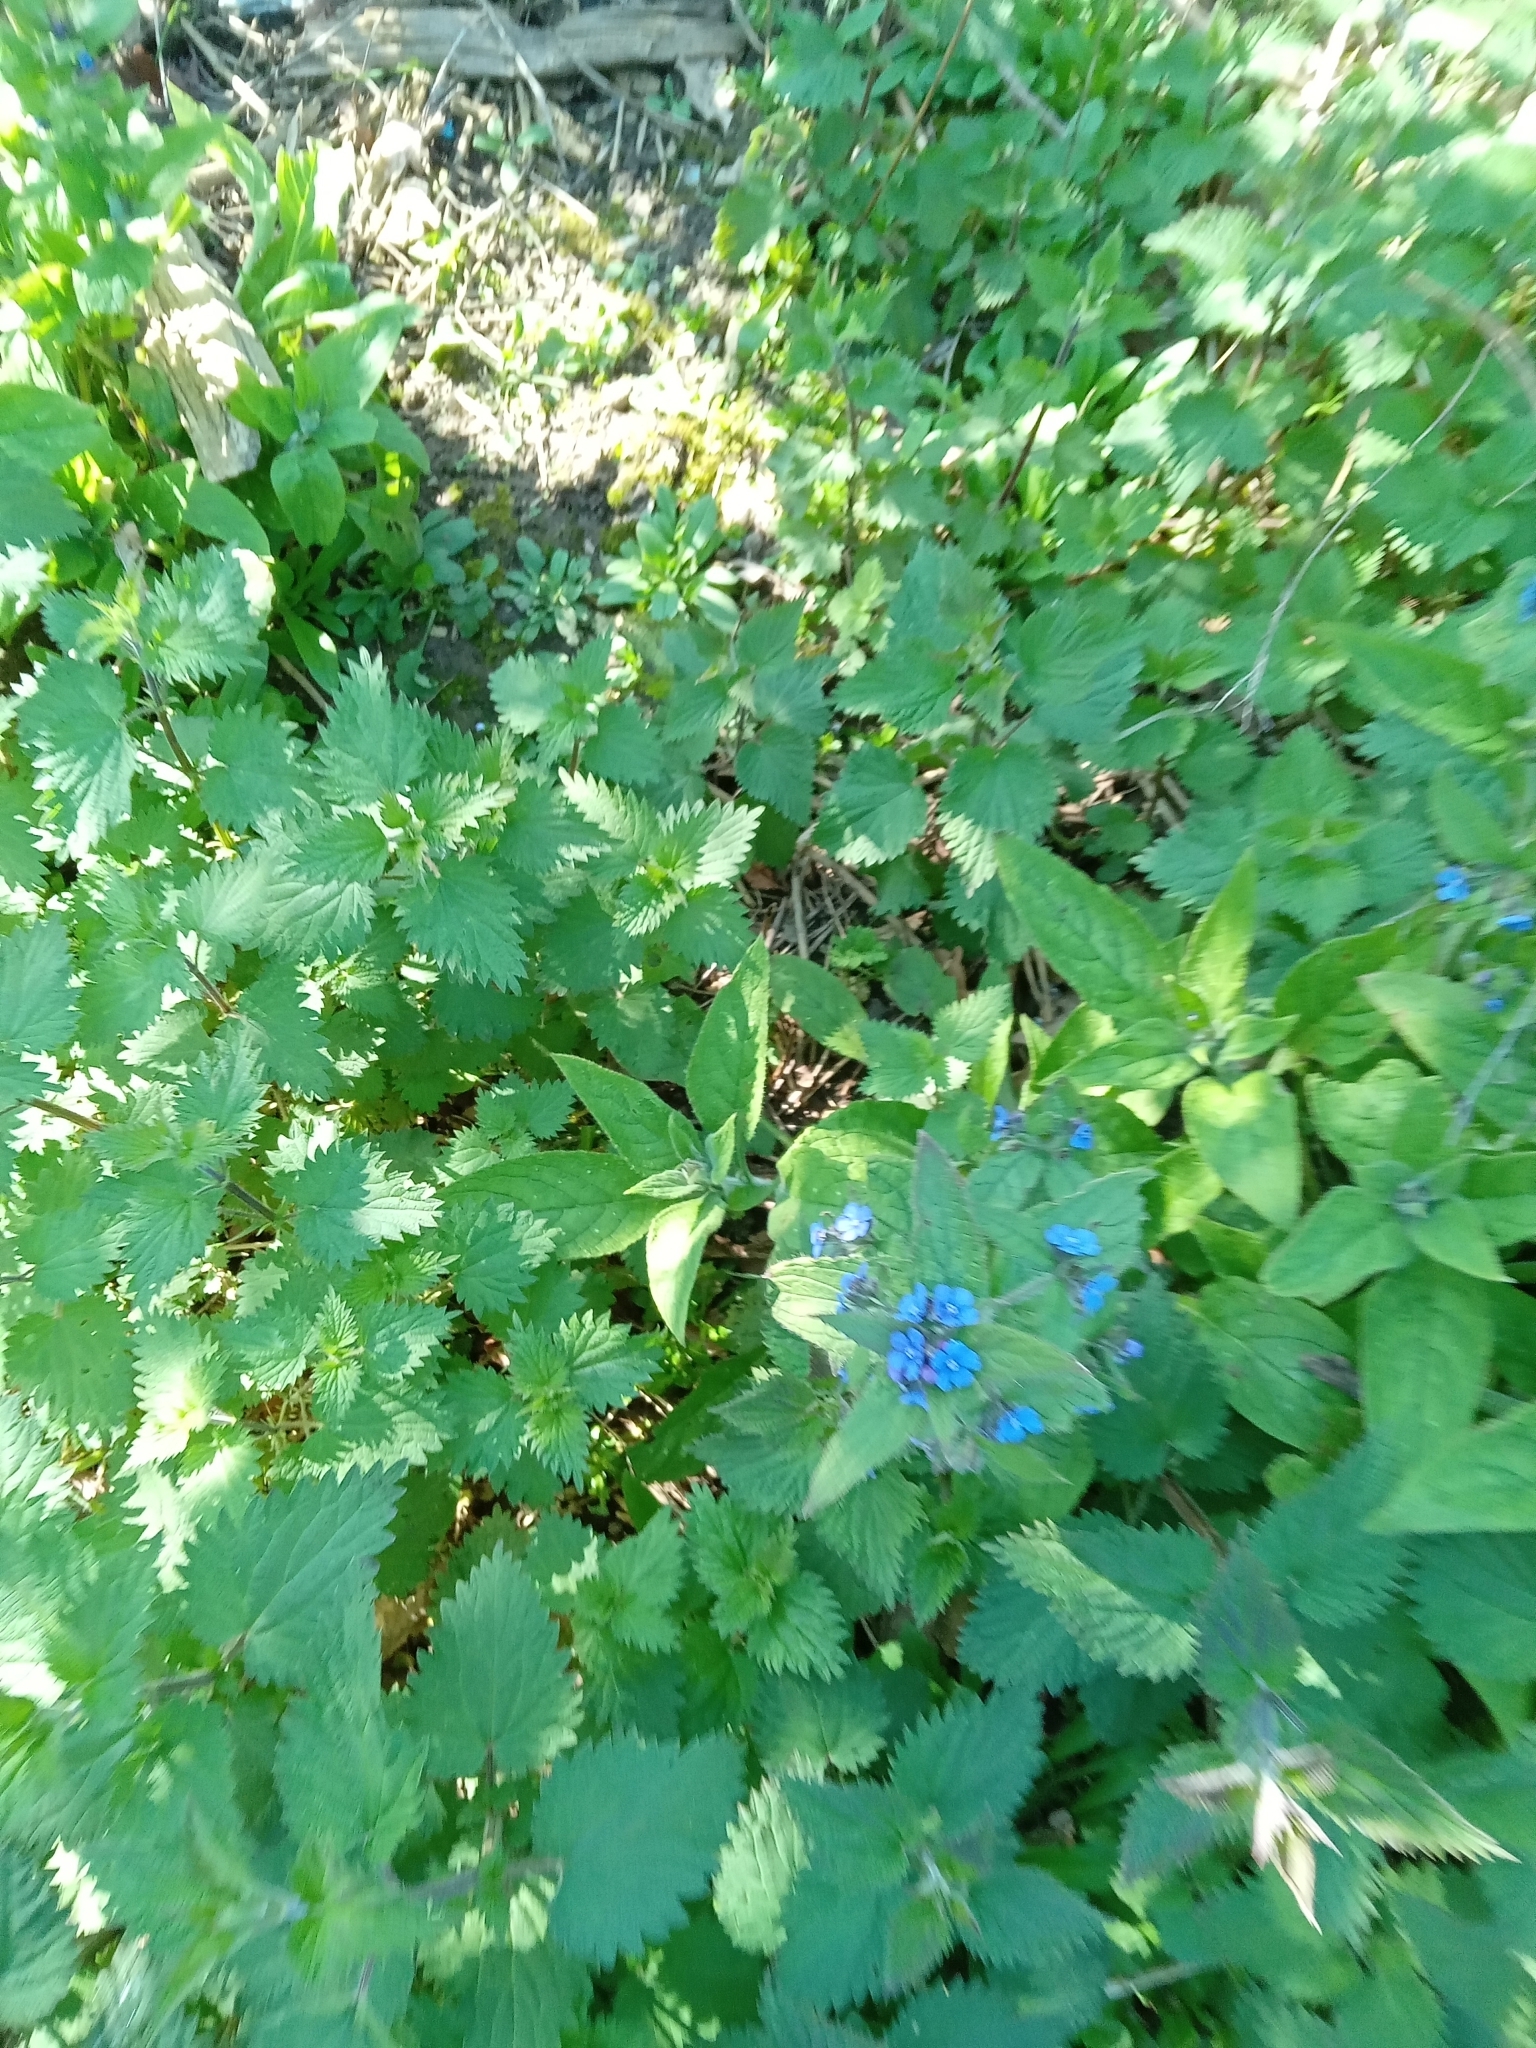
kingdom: Plantae
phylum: Tracheophyta
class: Magnoliopsida
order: Boraginales
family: Boraginaceae
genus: Pentaglottis
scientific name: Pentaglottis sempervirens
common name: Green alkanet
